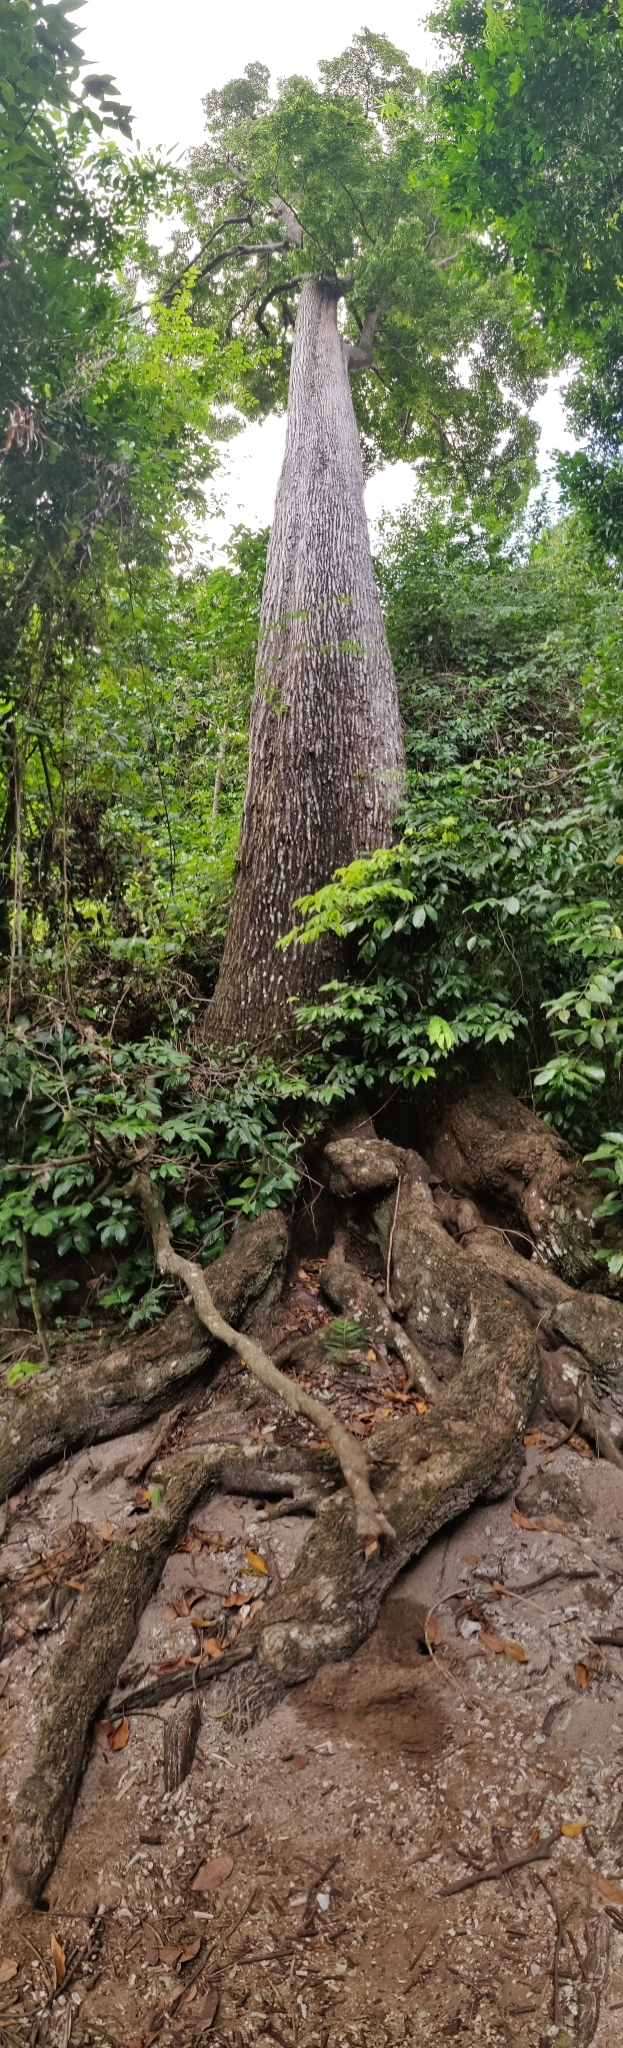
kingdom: Plantae
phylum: Tracheophyta
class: Magnoliopsida
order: Ericales
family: Sapotaceae
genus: Manilkara
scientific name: Manilkara littoralis
